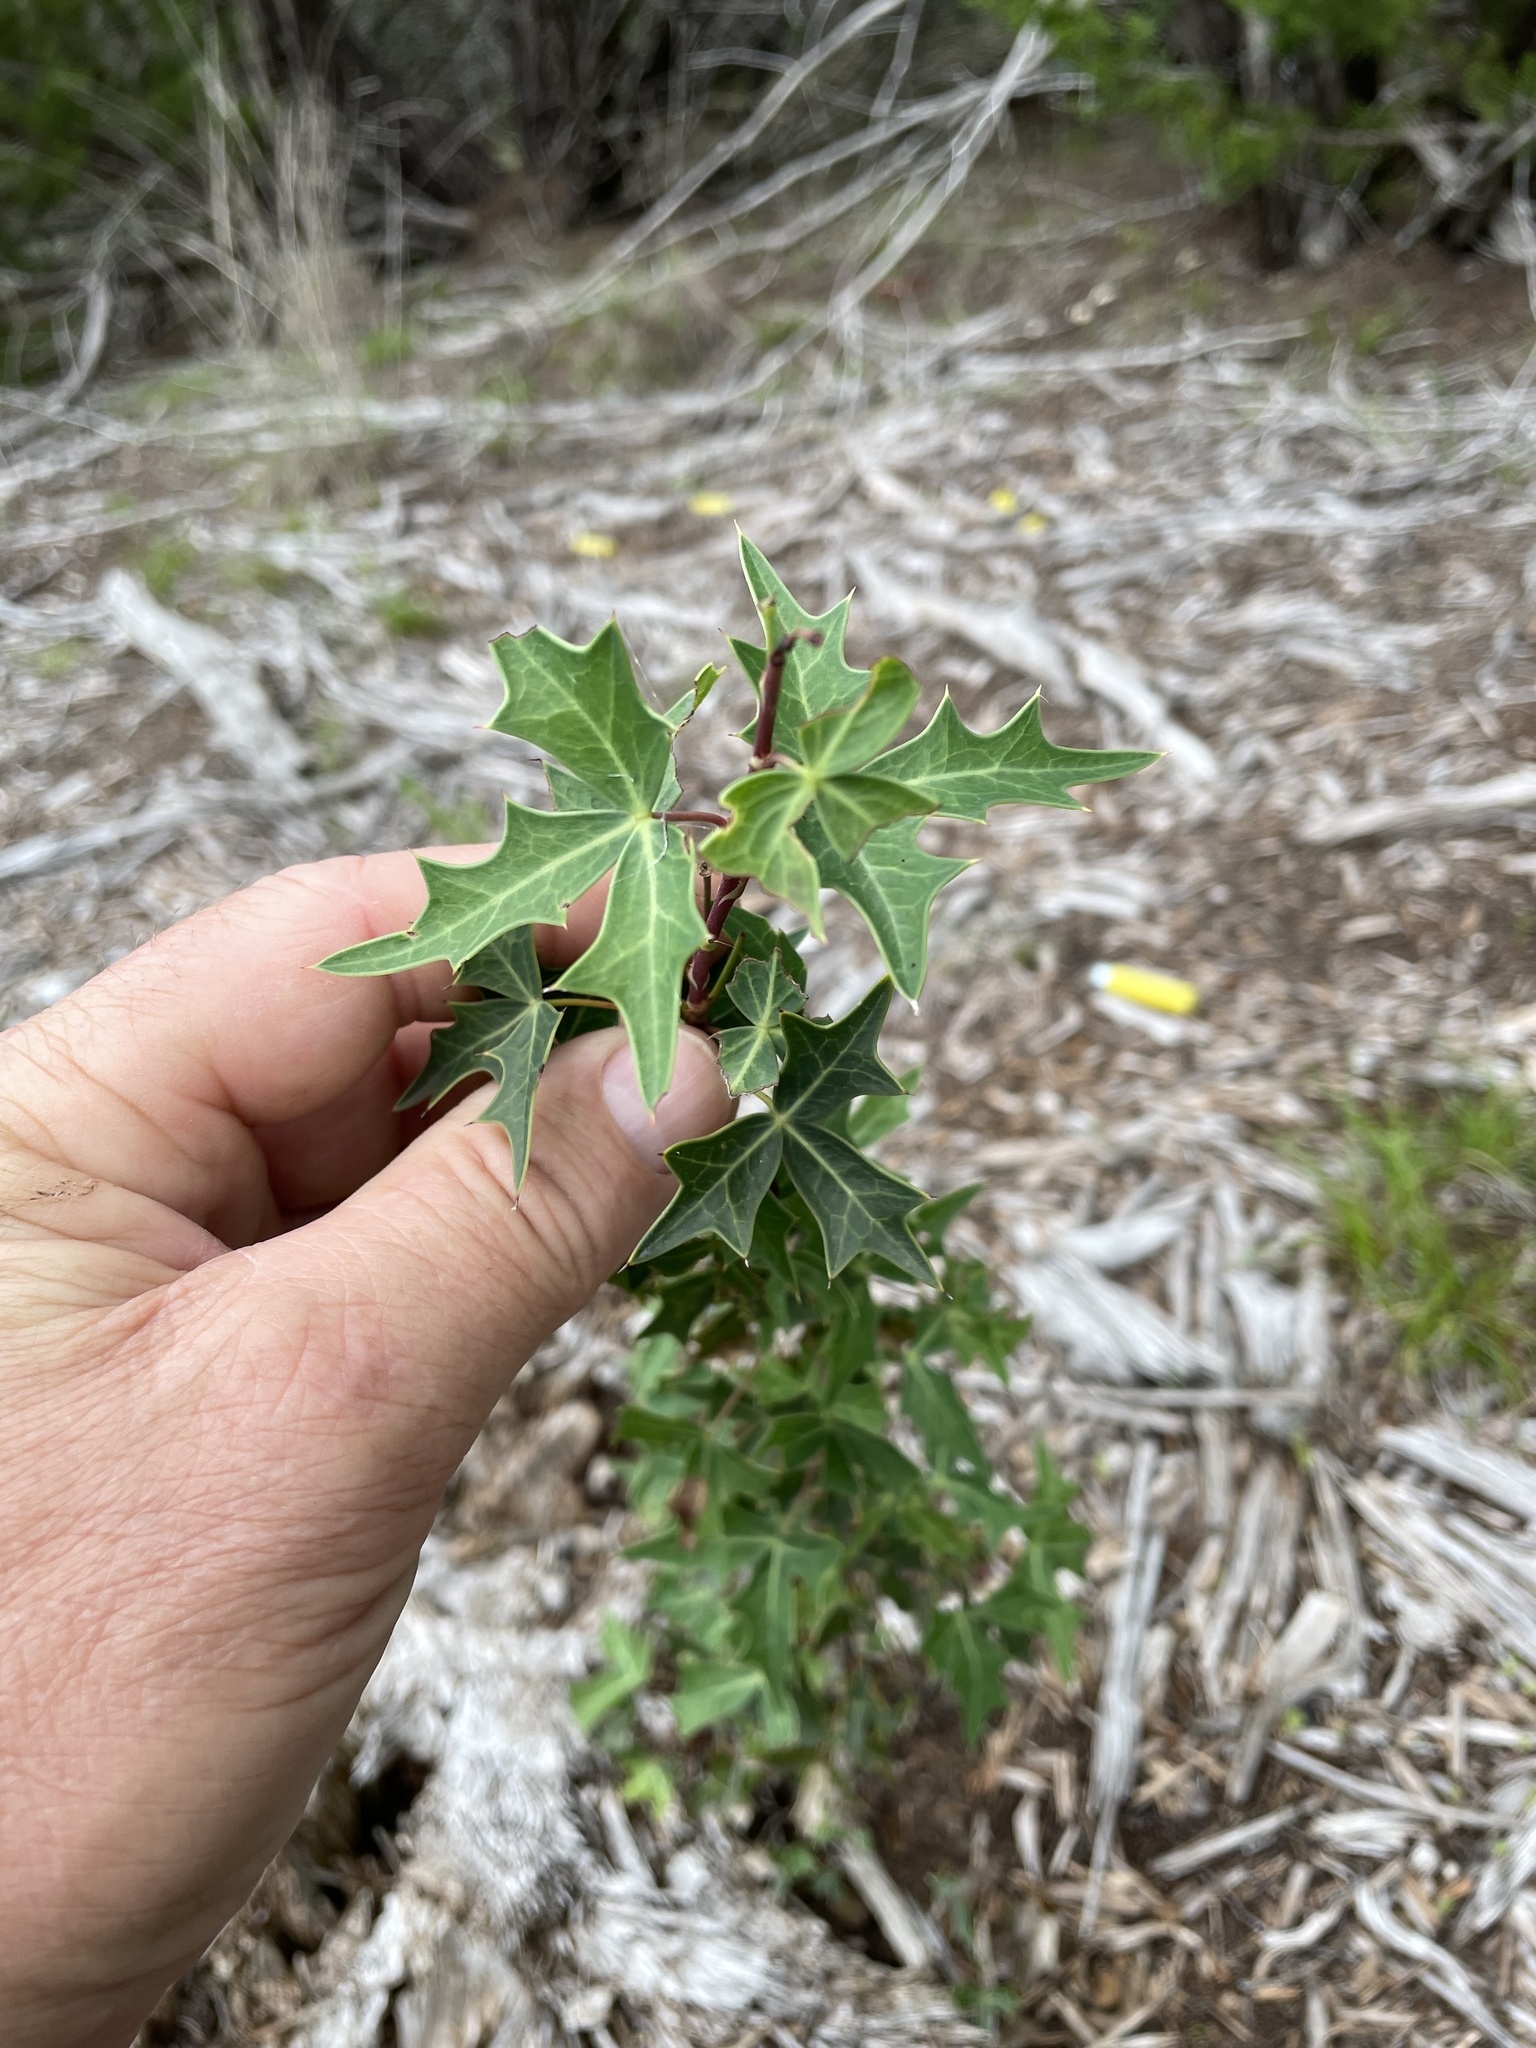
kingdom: Plantae
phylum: Tracheophyta
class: Magnoliopsida
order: Ranunculales
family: Berberidaceae
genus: Alloberberis
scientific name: Alloberberis trifoliolata
